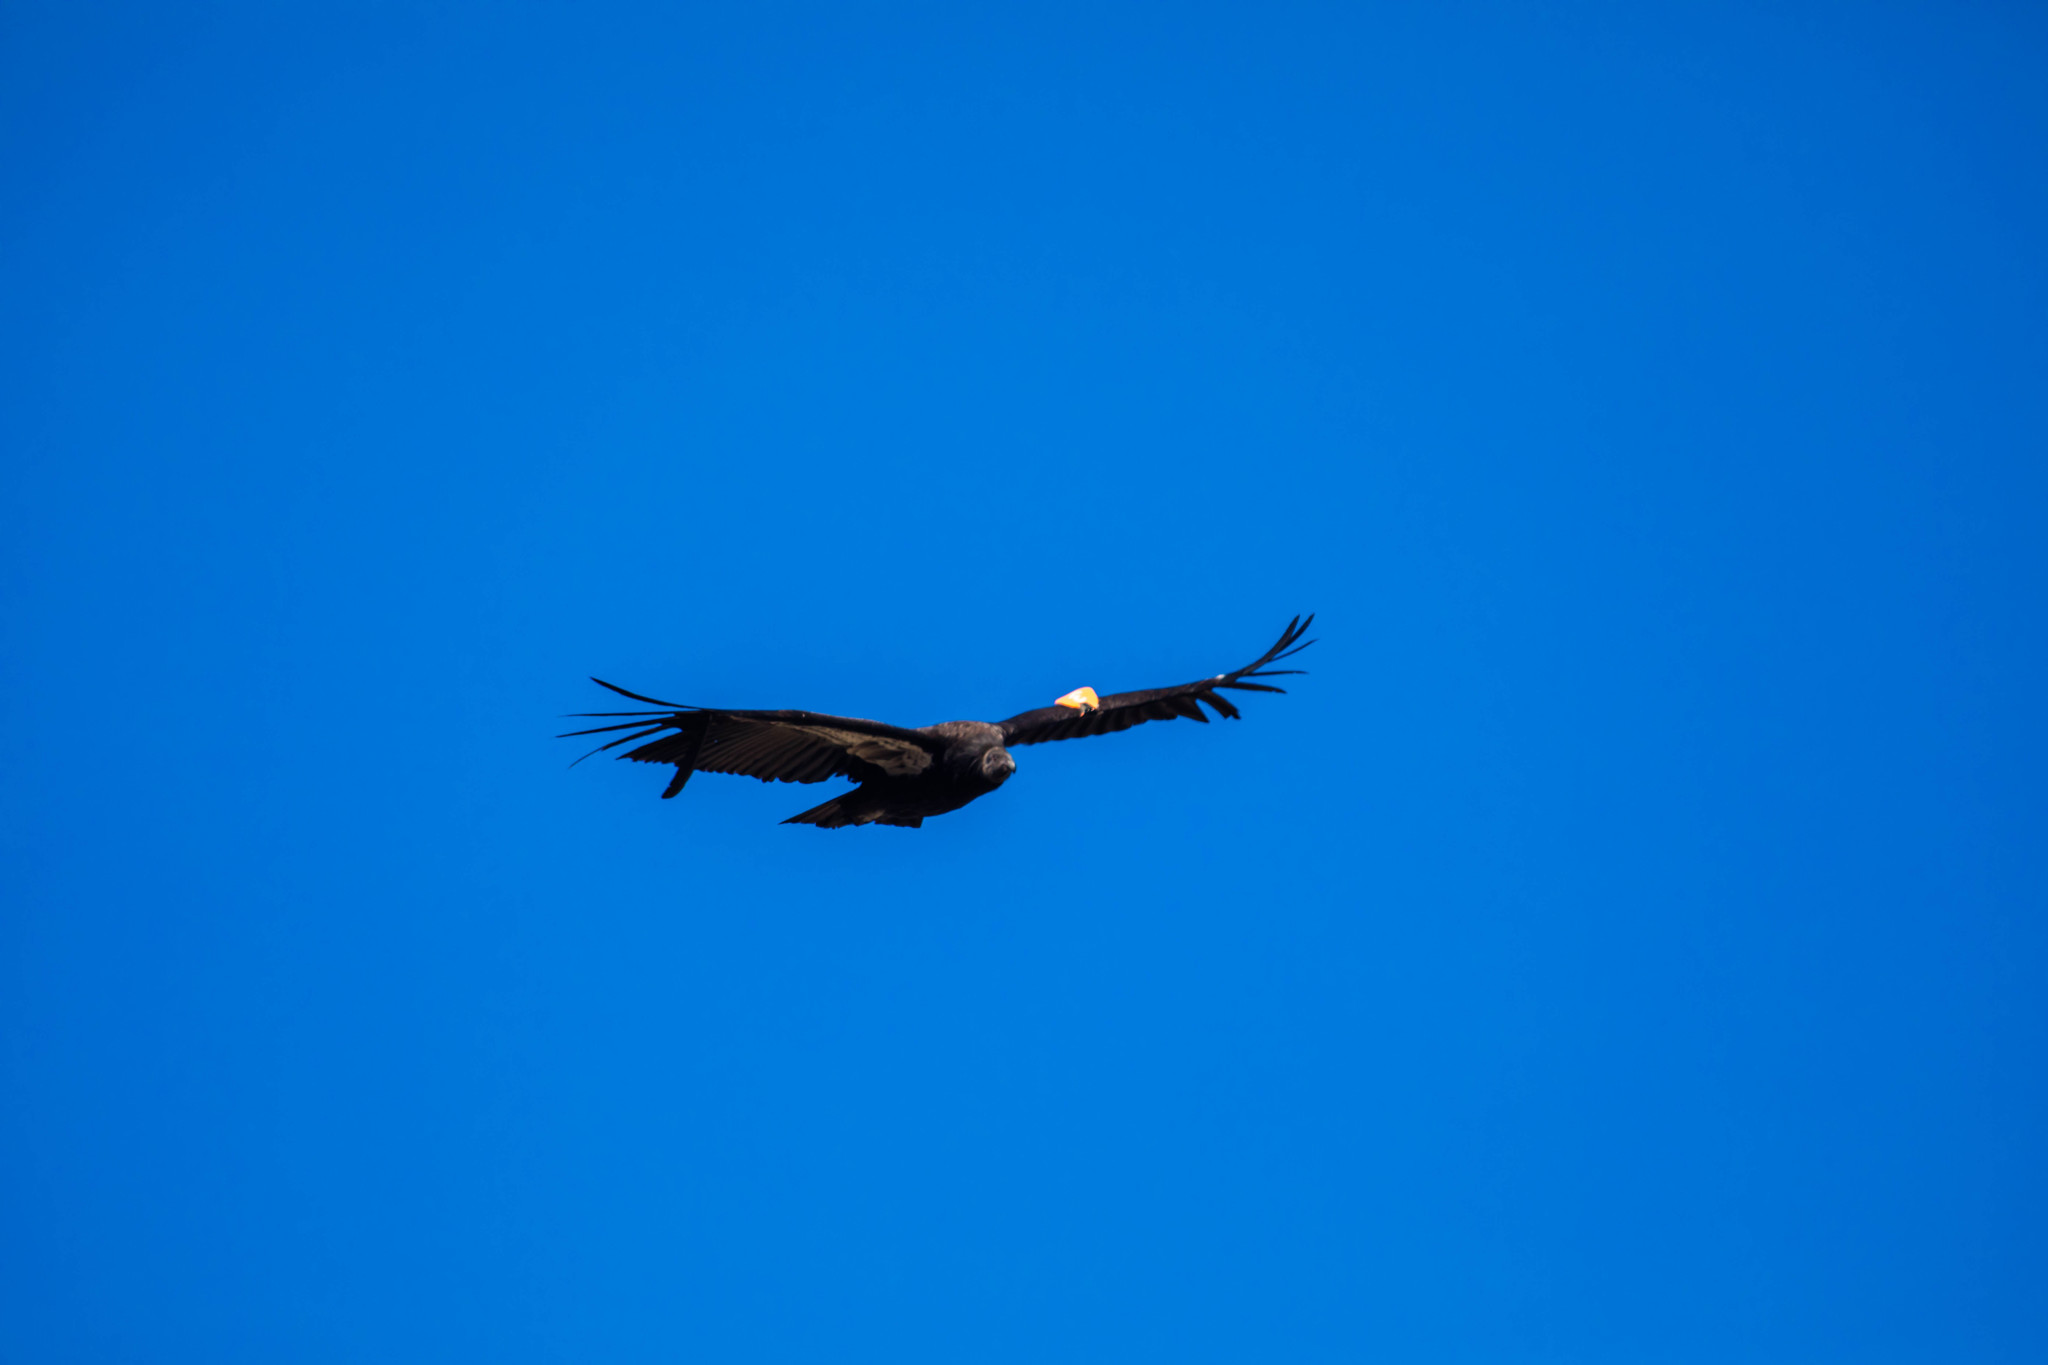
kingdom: Animalia
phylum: Chordata
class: Aves
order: Accipitriformes
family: Cathartidae
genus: Gymnogyps
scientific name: Gymnogyps californianus
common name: California condor
